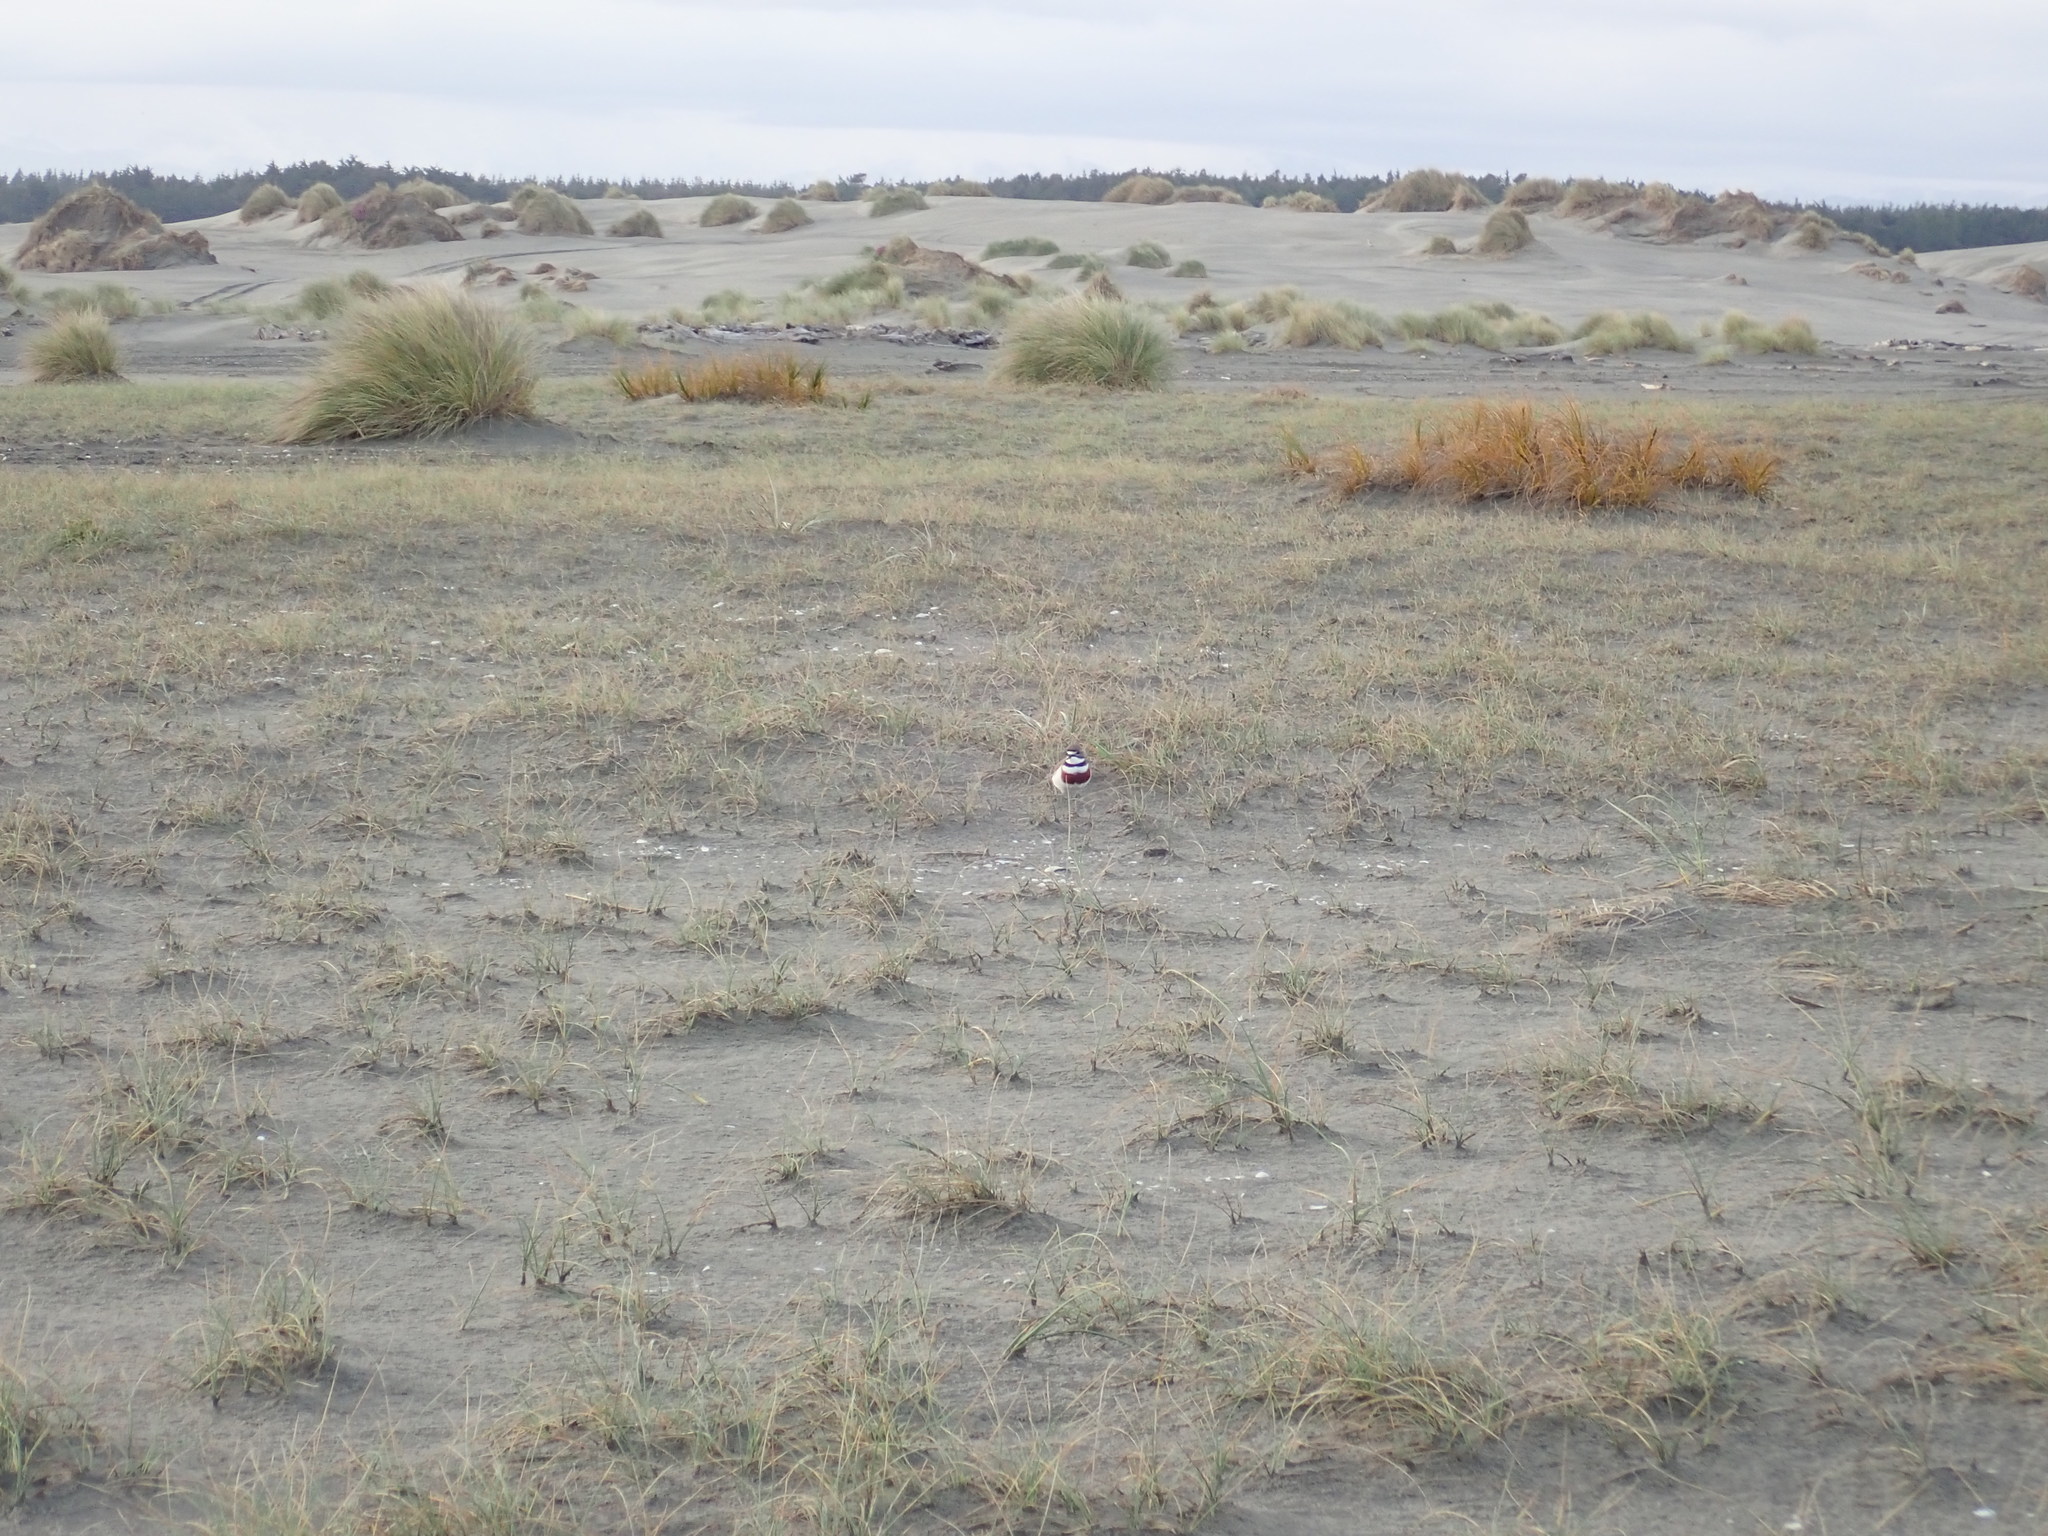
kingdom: Animalia
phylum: Chordata
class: Aves
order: Charadriiformes
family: Charadriidae
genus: Anarhynchus
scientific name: Anarhynchus
